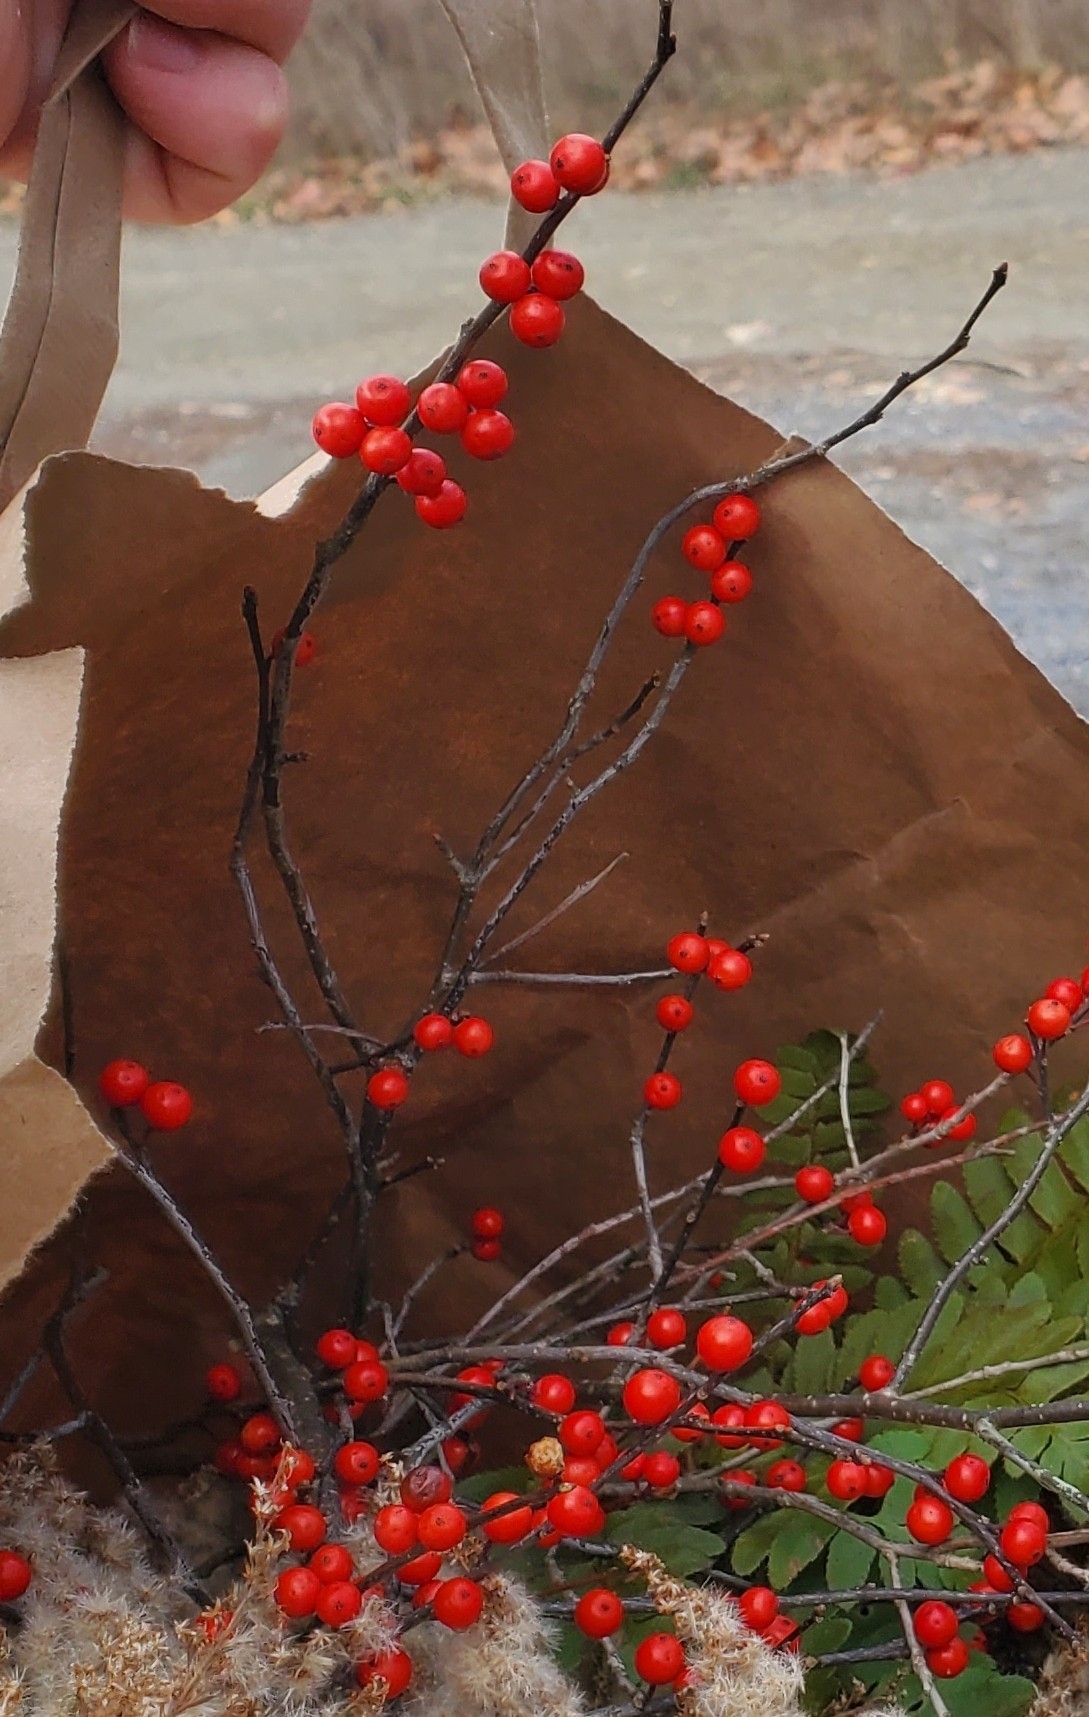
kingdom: Plantae
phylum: Tracheophyta
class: Magnoliopsida
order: Aquifoliales
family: Aquifoliaceae
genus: Ilex
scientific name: Ilex verticillata
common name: Virginia winterberry
